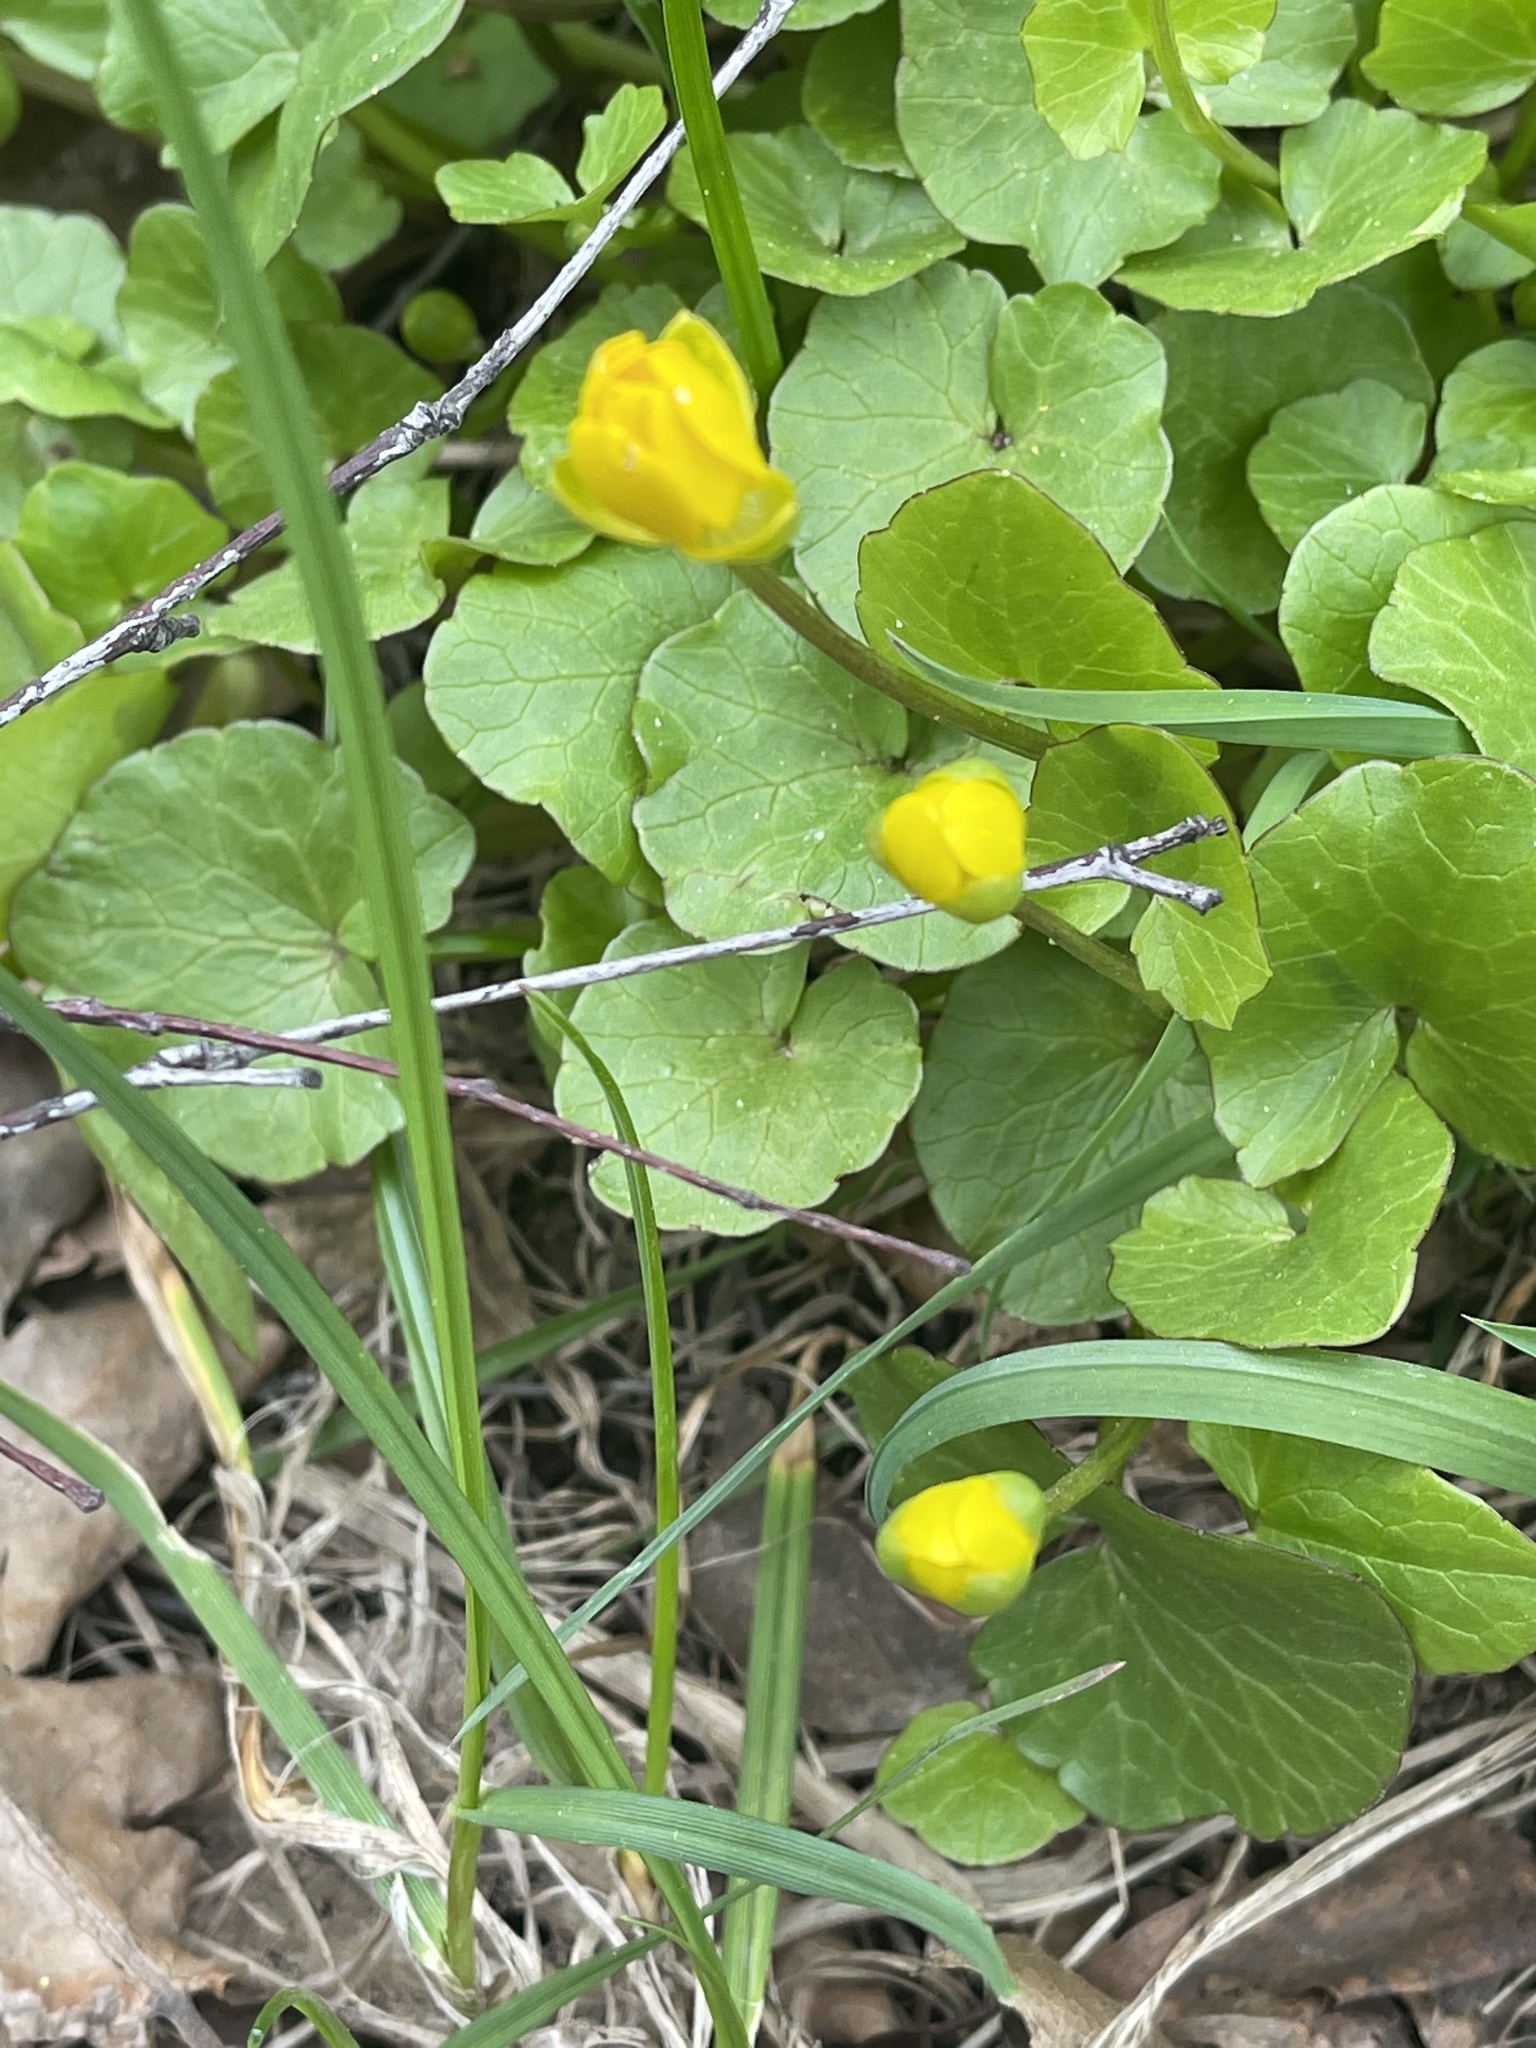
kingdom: Plantae
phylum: Tracheophyta
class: Magnoliopsida
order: Ranunculales
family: Ranunculaceae
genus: Ficaria
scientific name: Ficaria verna
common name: Lesser celandine
